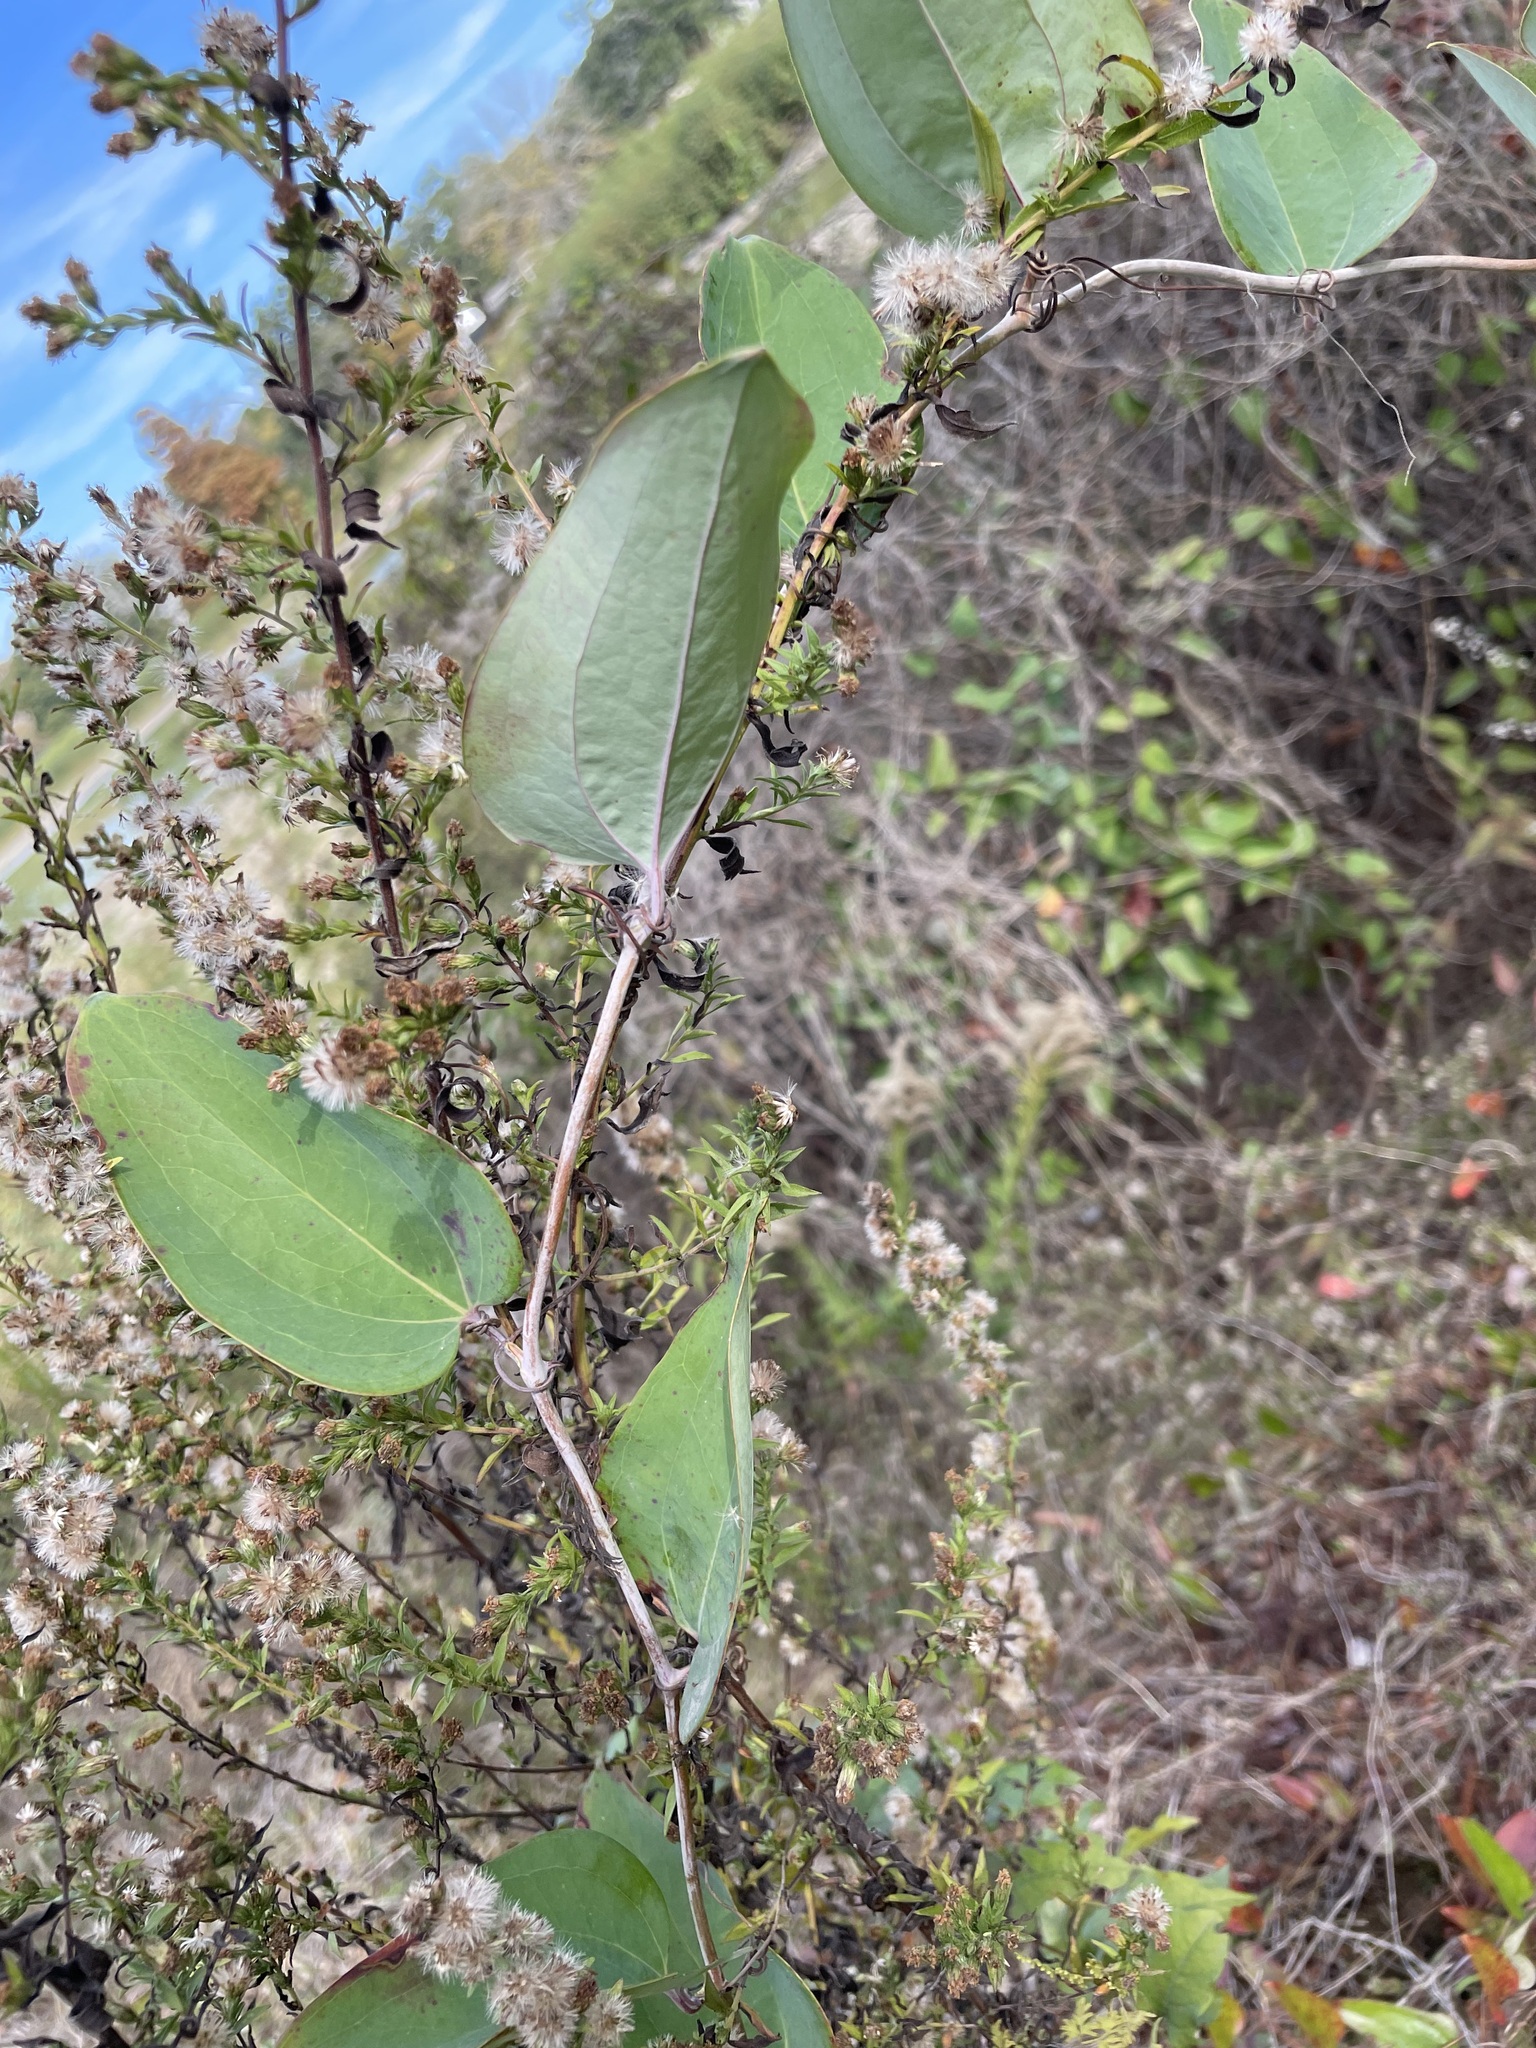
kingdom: Plantae
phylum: Tracheophyta
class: Liliopsida
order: Liliales
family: Smilacaceae
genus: Smilax
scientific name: Smilax glauca
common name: Cat greenbrier
